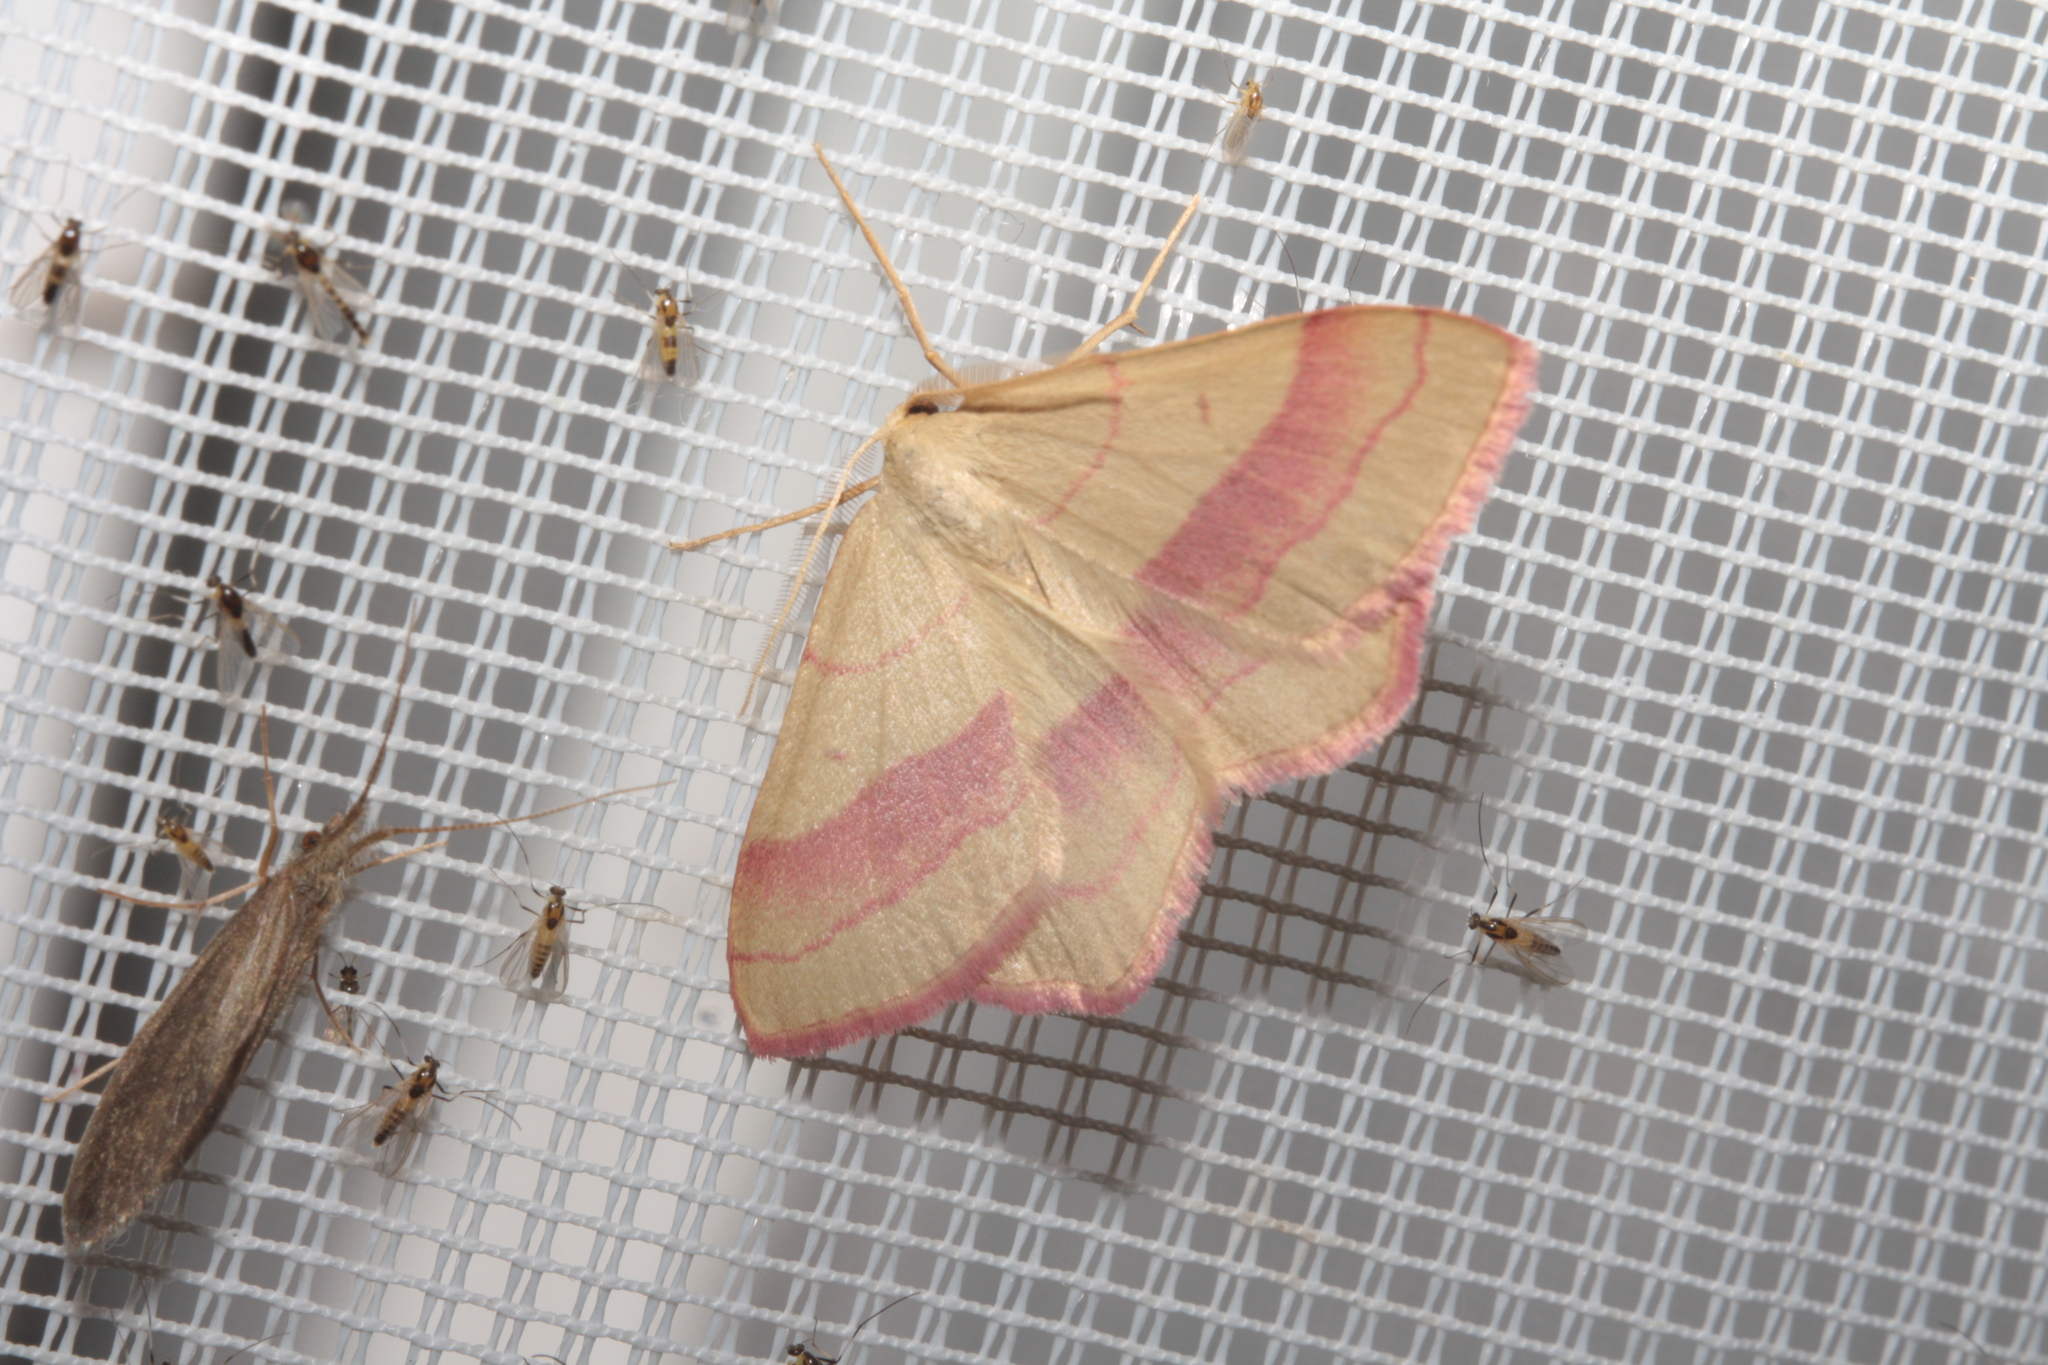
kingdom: Animalia
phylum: Arthropoda
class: Insecta
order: Lepidoptera
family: Geometridae
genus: Rhodostrophia
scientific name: Rhodostrophia vibicaria
